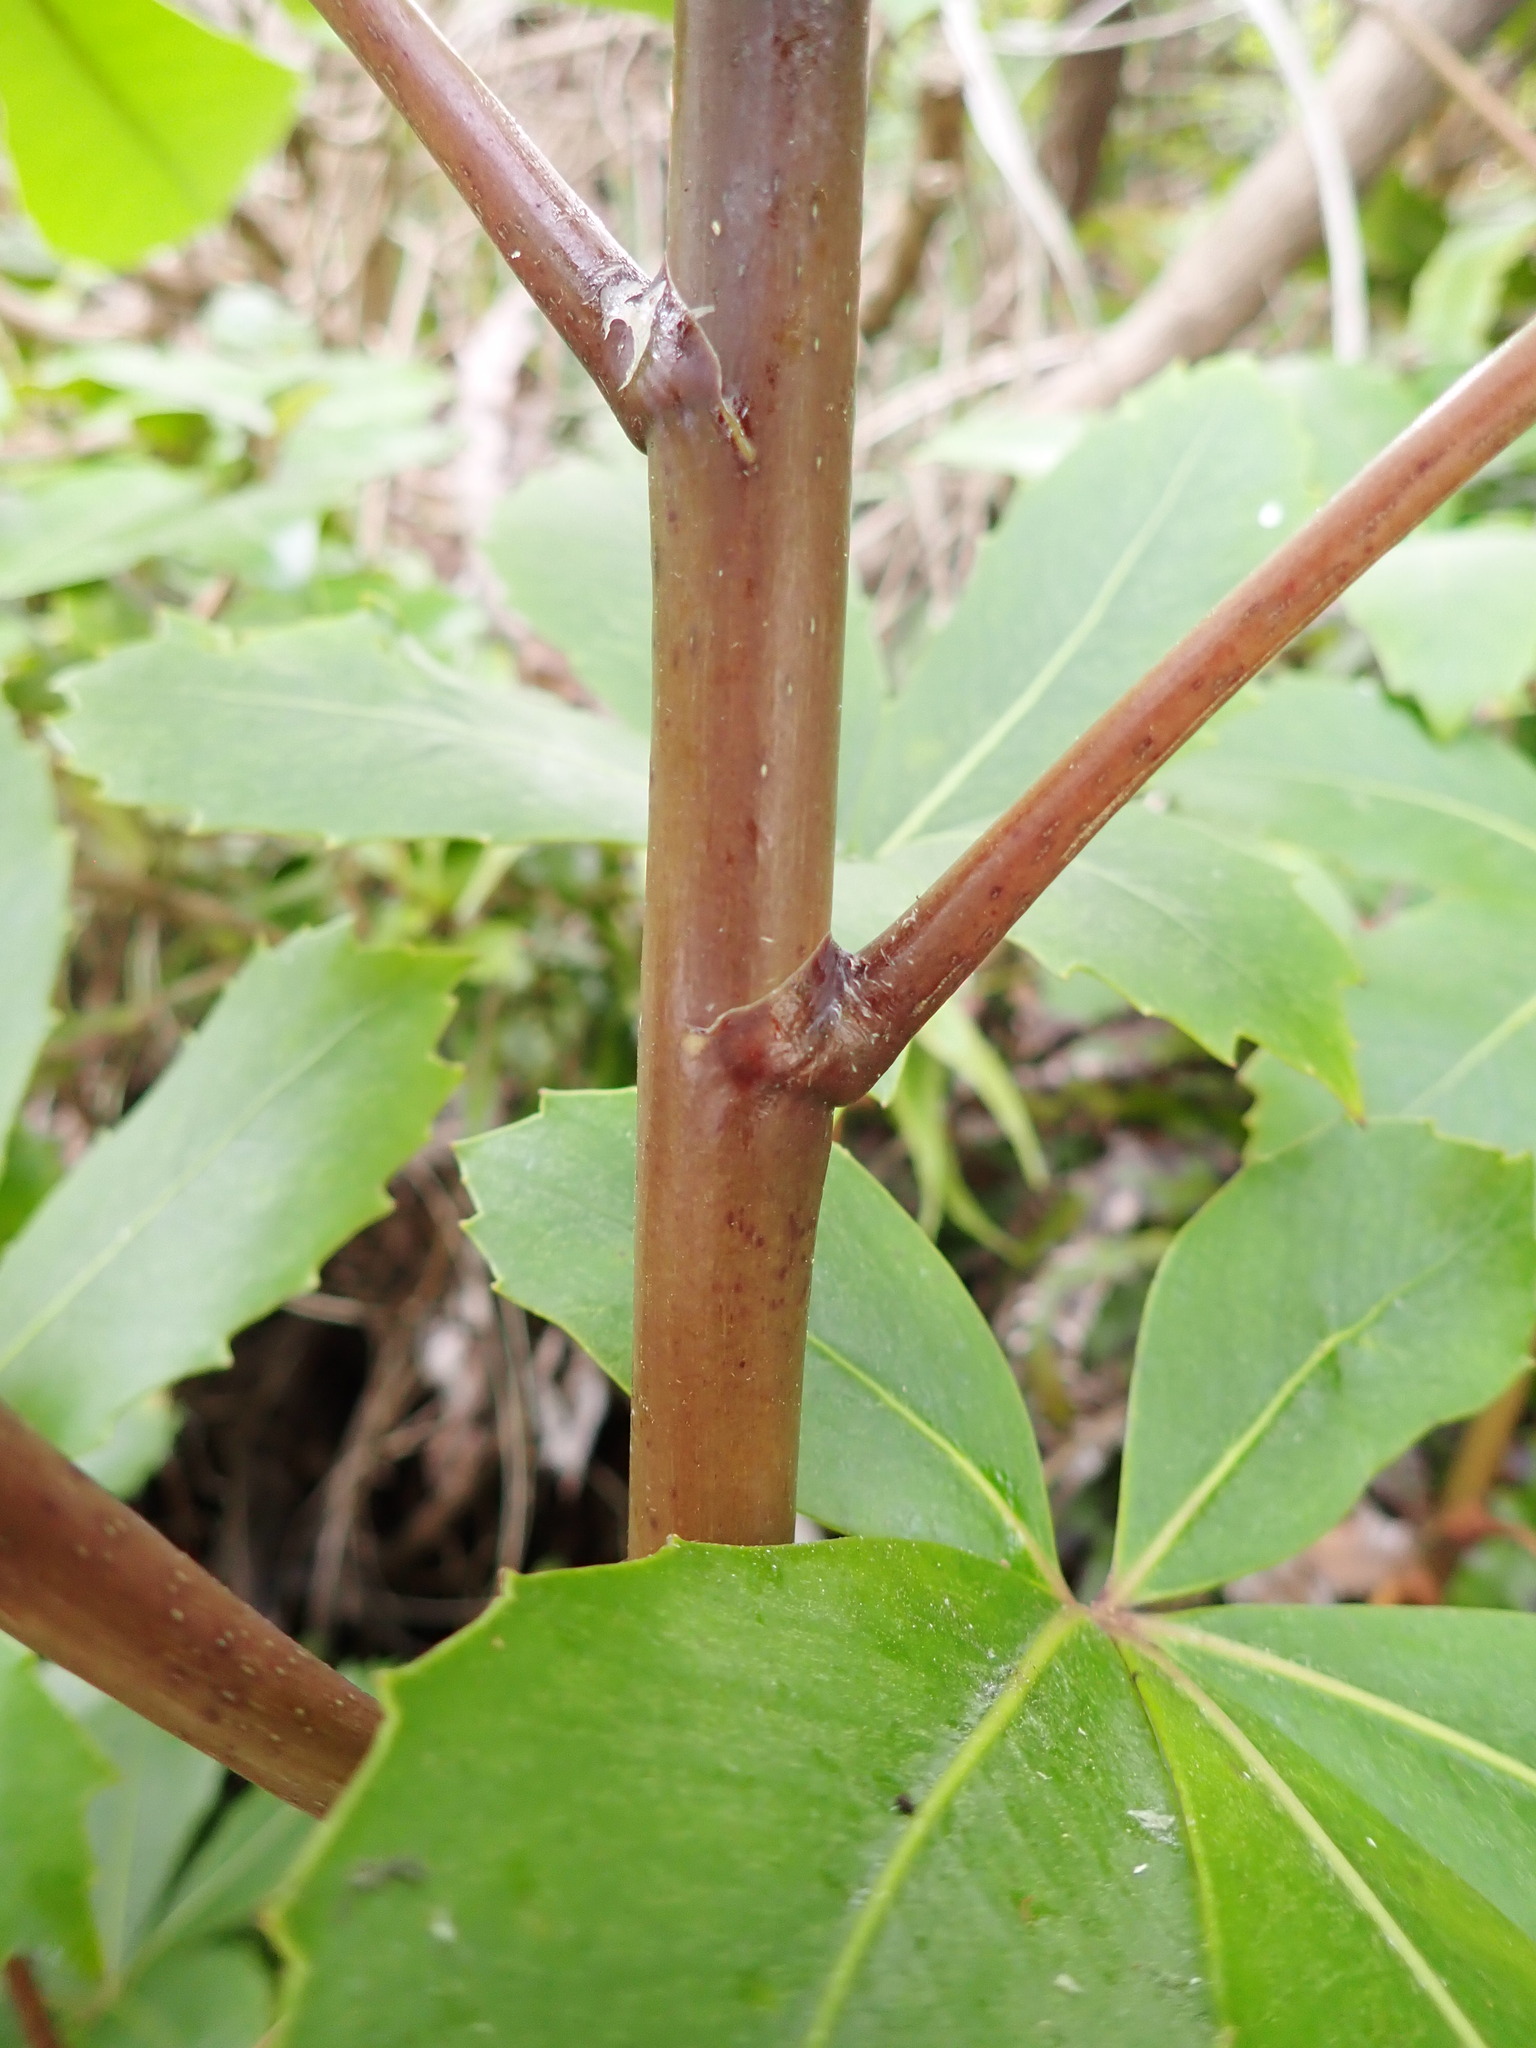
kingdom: Plantae
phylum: Tracheophyta
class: Magnoliopsida
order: Apiales
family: Araliaceae
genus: Neopanax
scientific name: Neopanax colensoi
